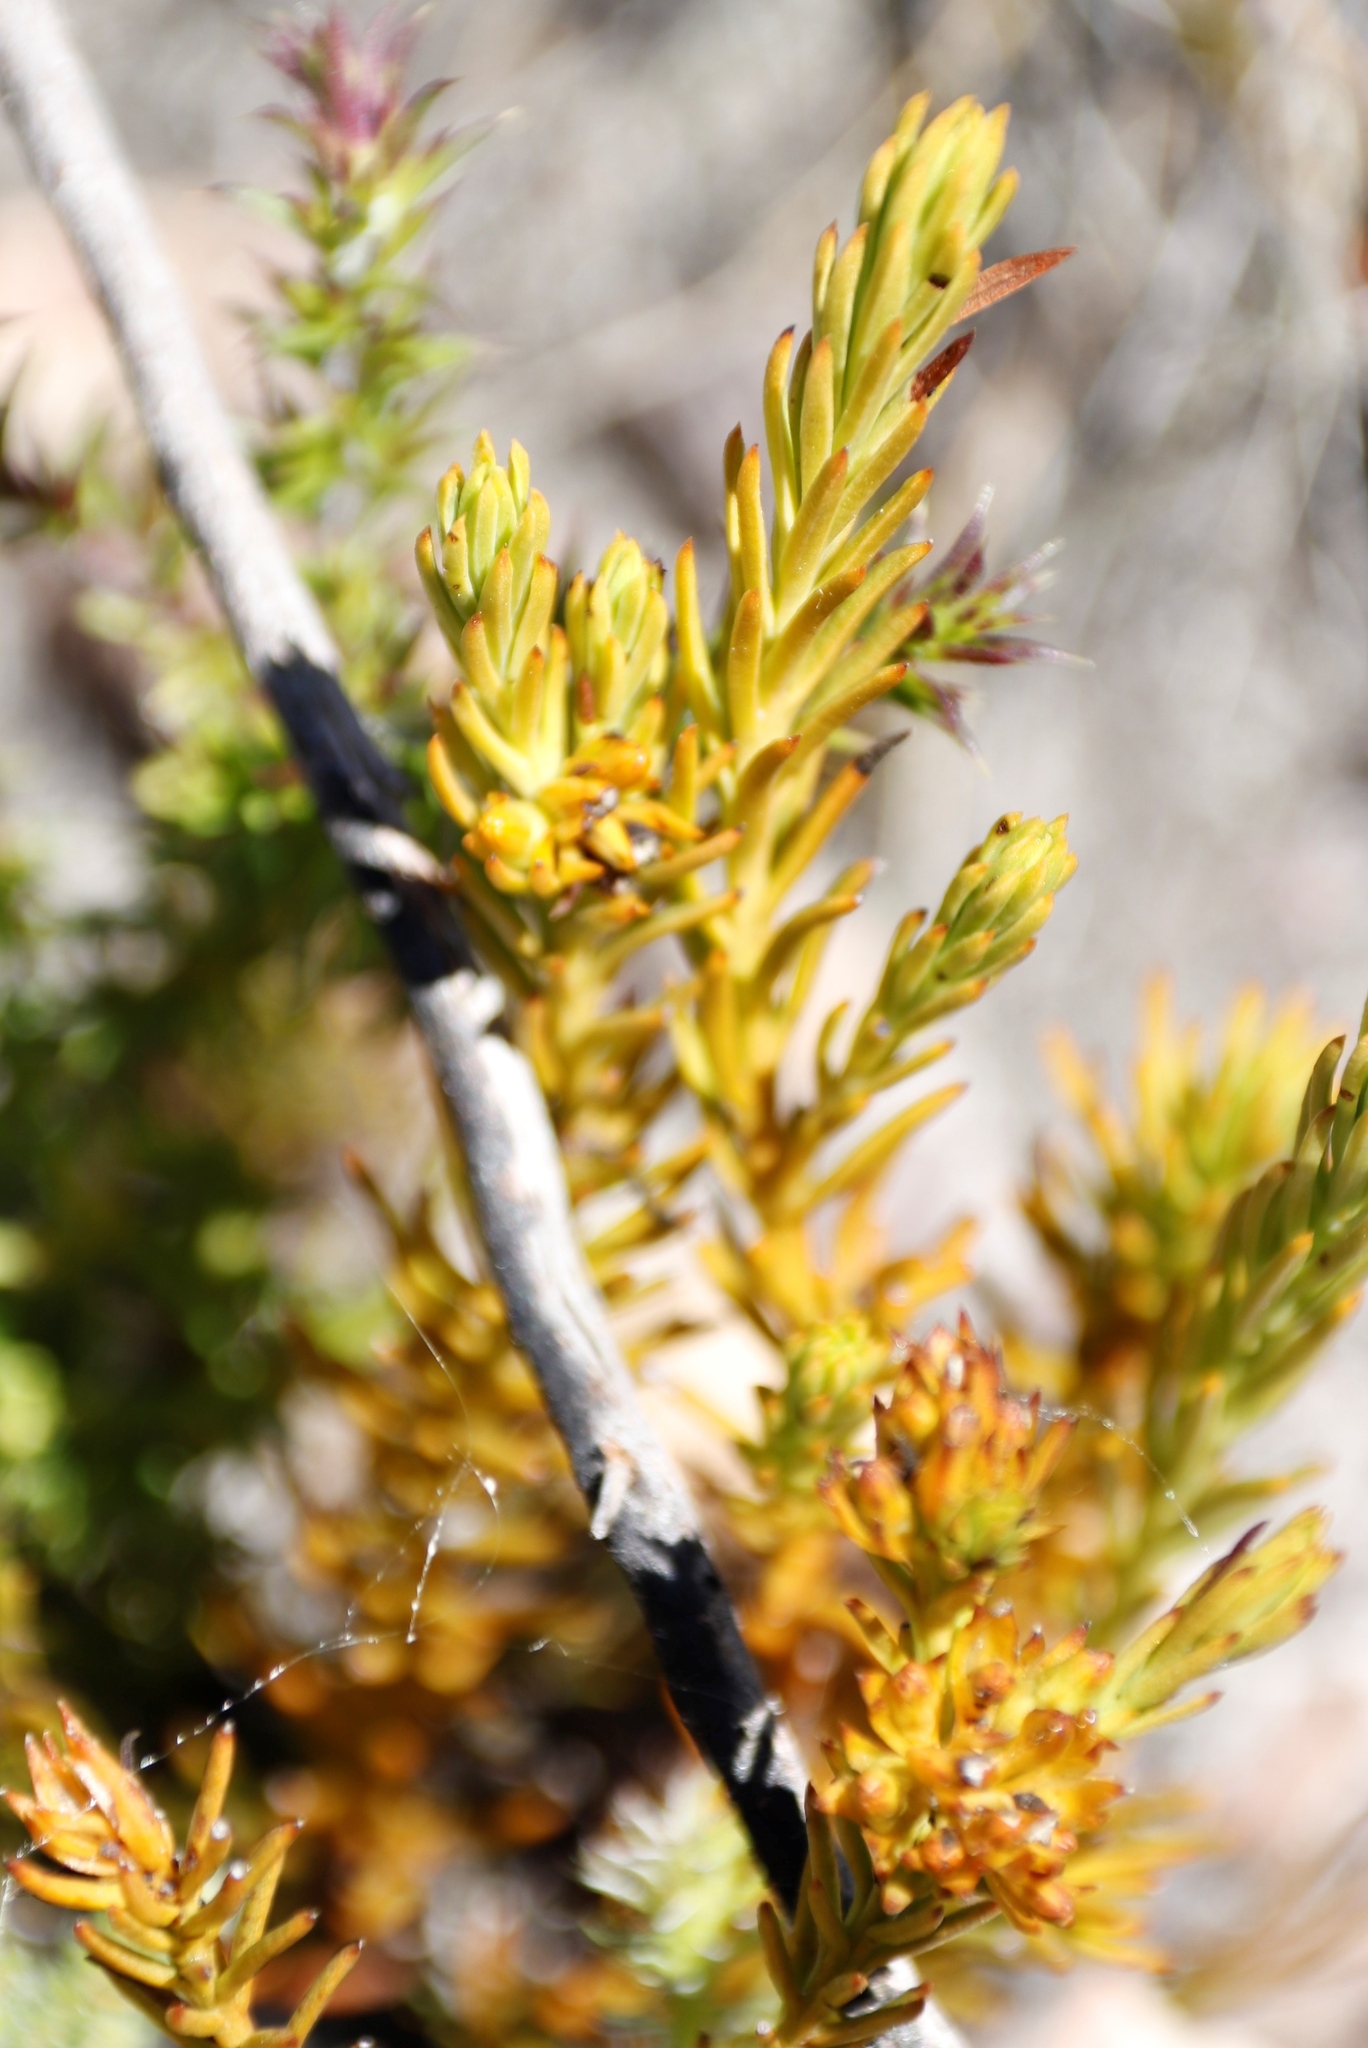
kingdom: Plantae
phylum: Tracheophyta
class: Magnoliopsida
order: Santalales
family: Thesiaceae
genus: Thesium
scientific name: Thesium capitatum
